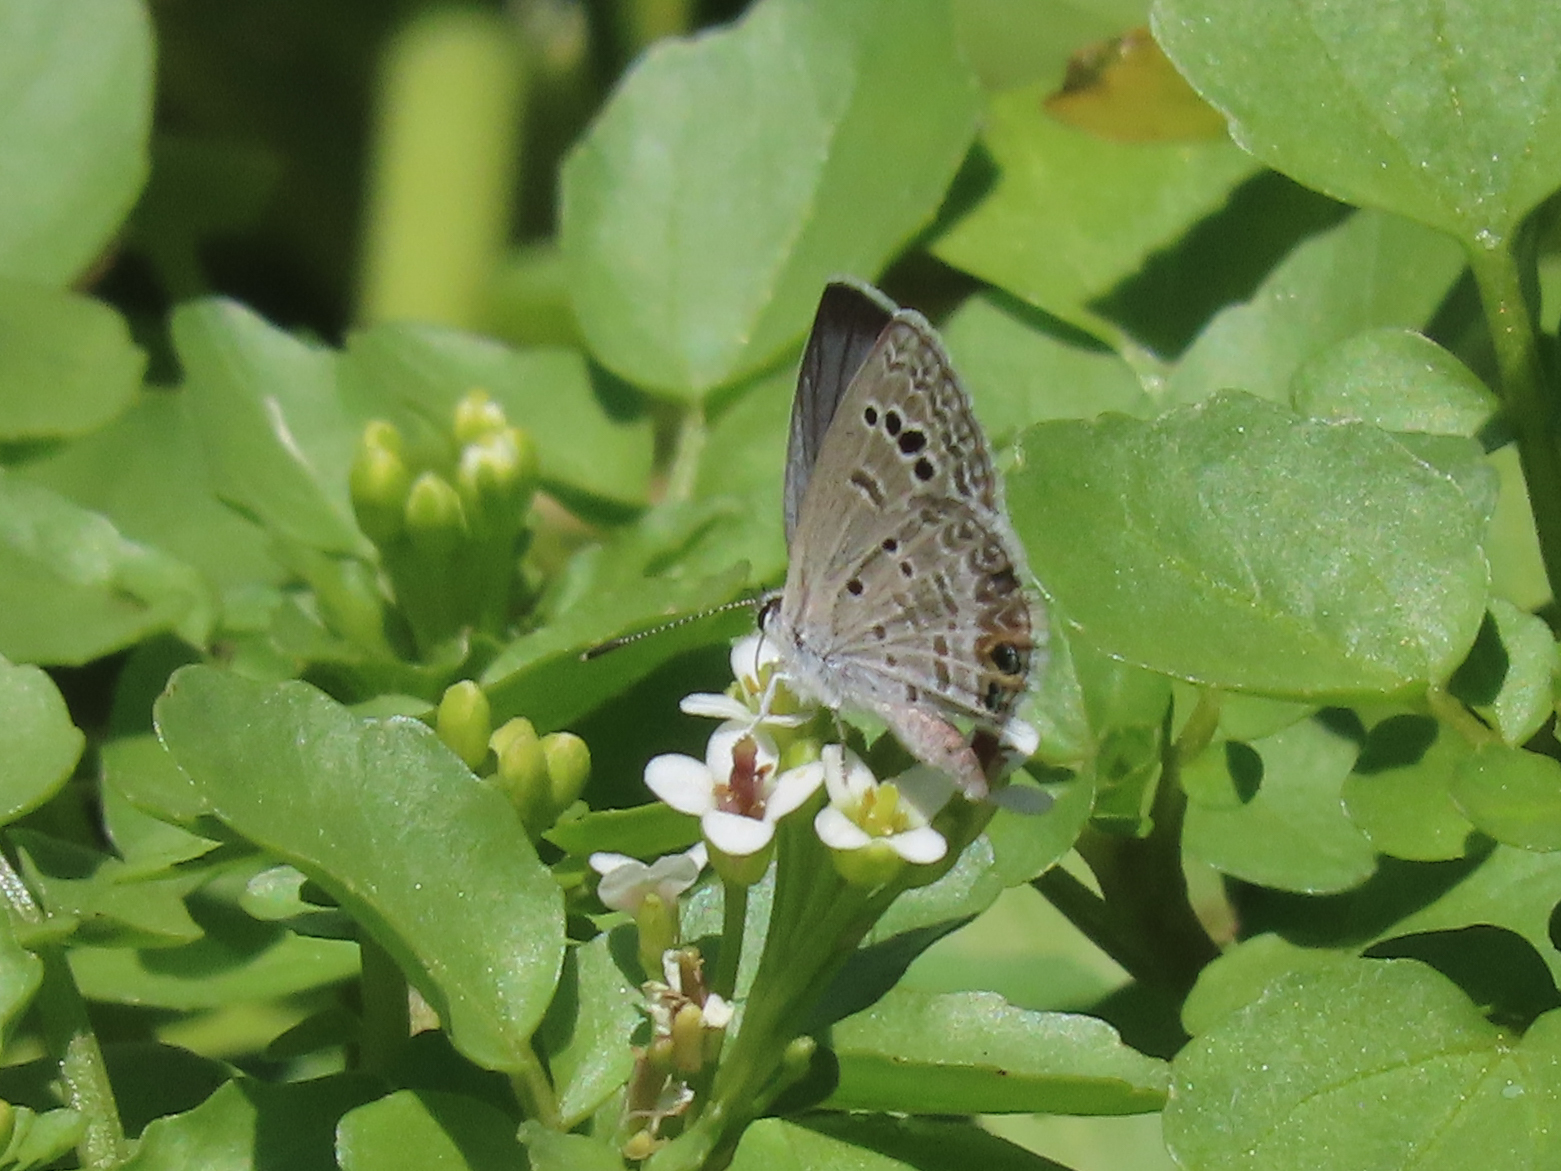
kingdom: Animalia
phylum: Arthropoda
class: Insecta
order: Lepidoptera
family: Lycaenidae
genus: Echinargus
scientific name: Echinargus isola
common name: Reakirt's blue
